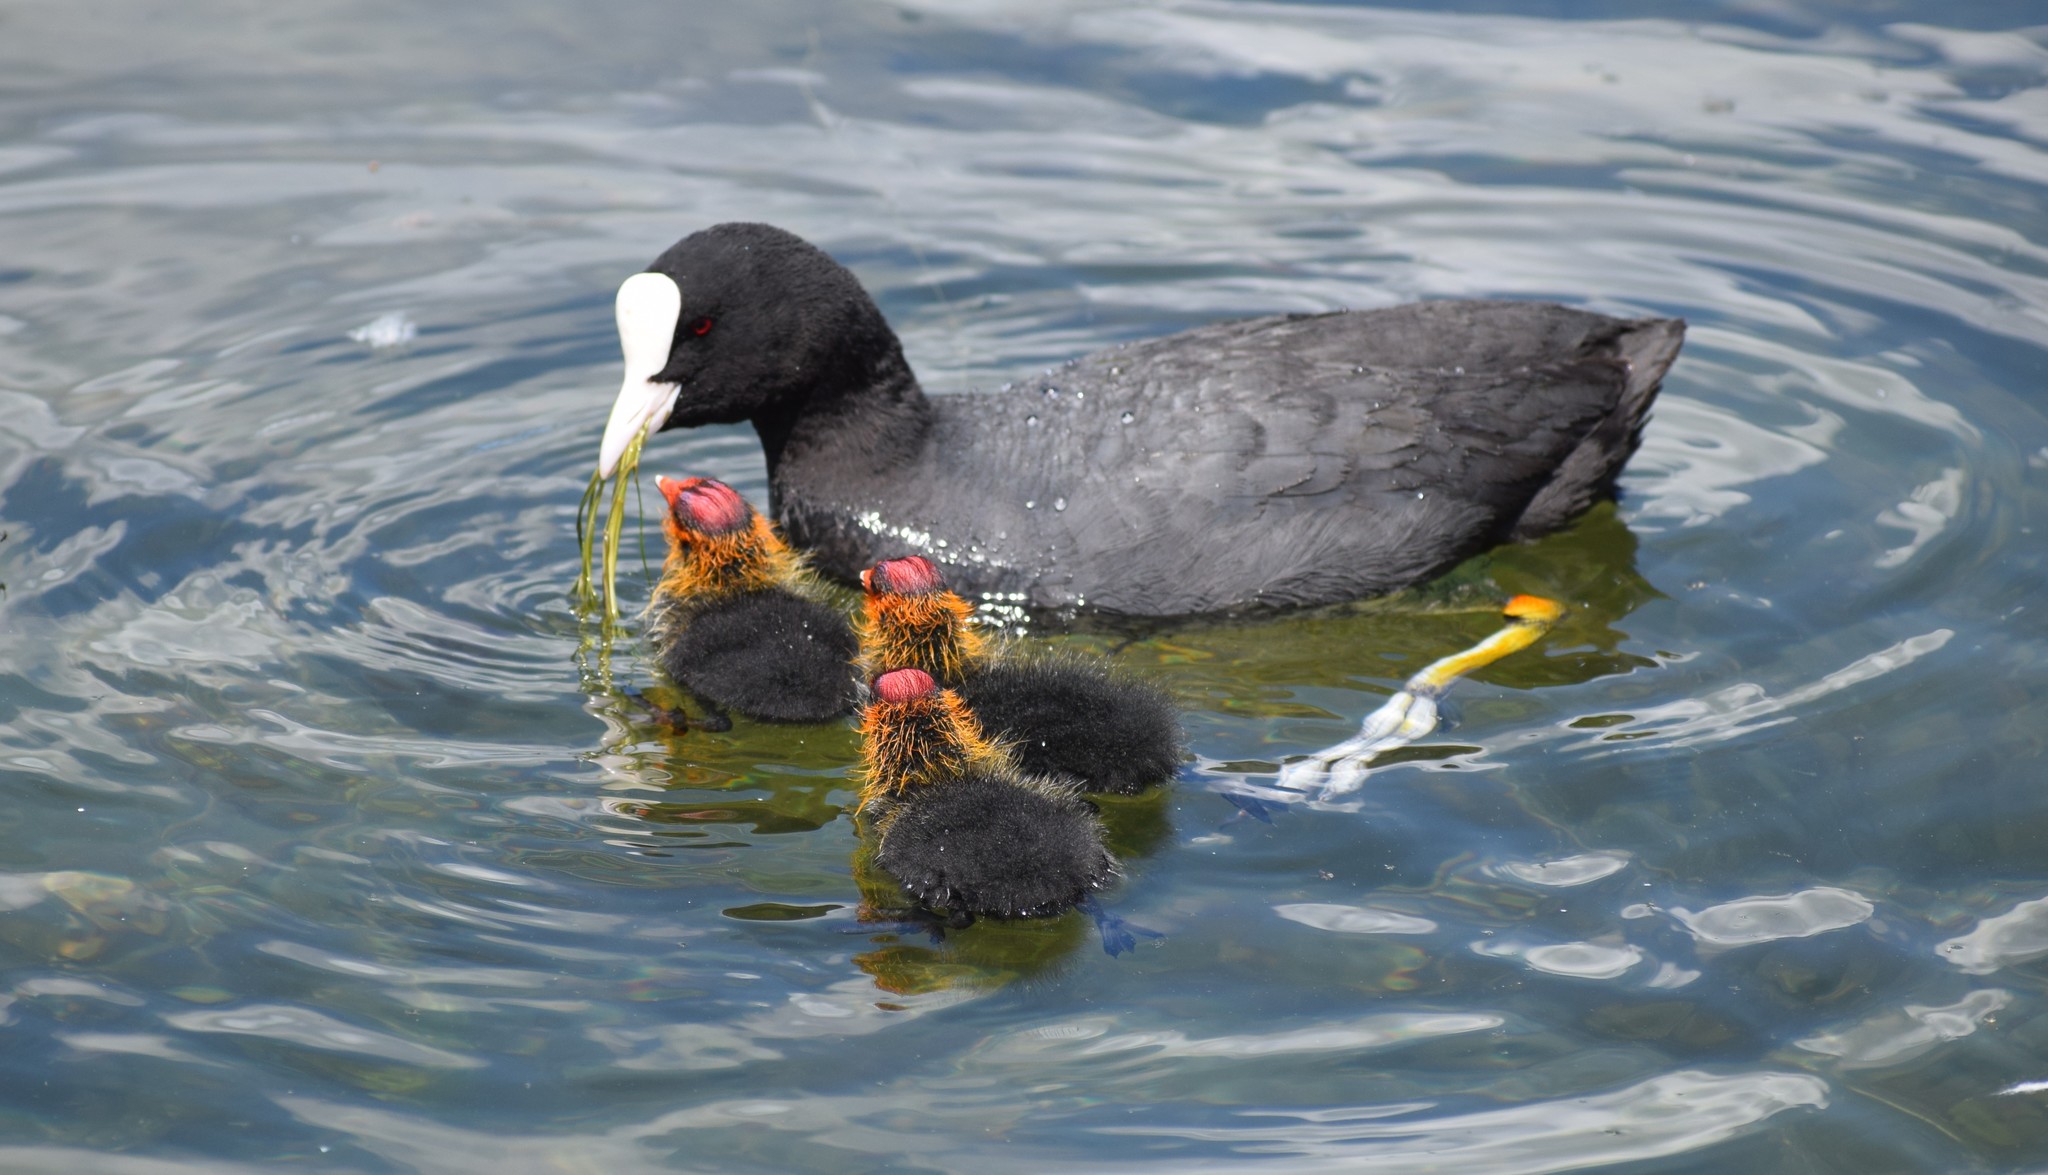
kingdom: Animalia
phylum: Chordata
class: Aves
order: Gruiformes
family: Rallidae
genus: Fulica
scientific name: Fulica atra
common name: Eurasian coot
